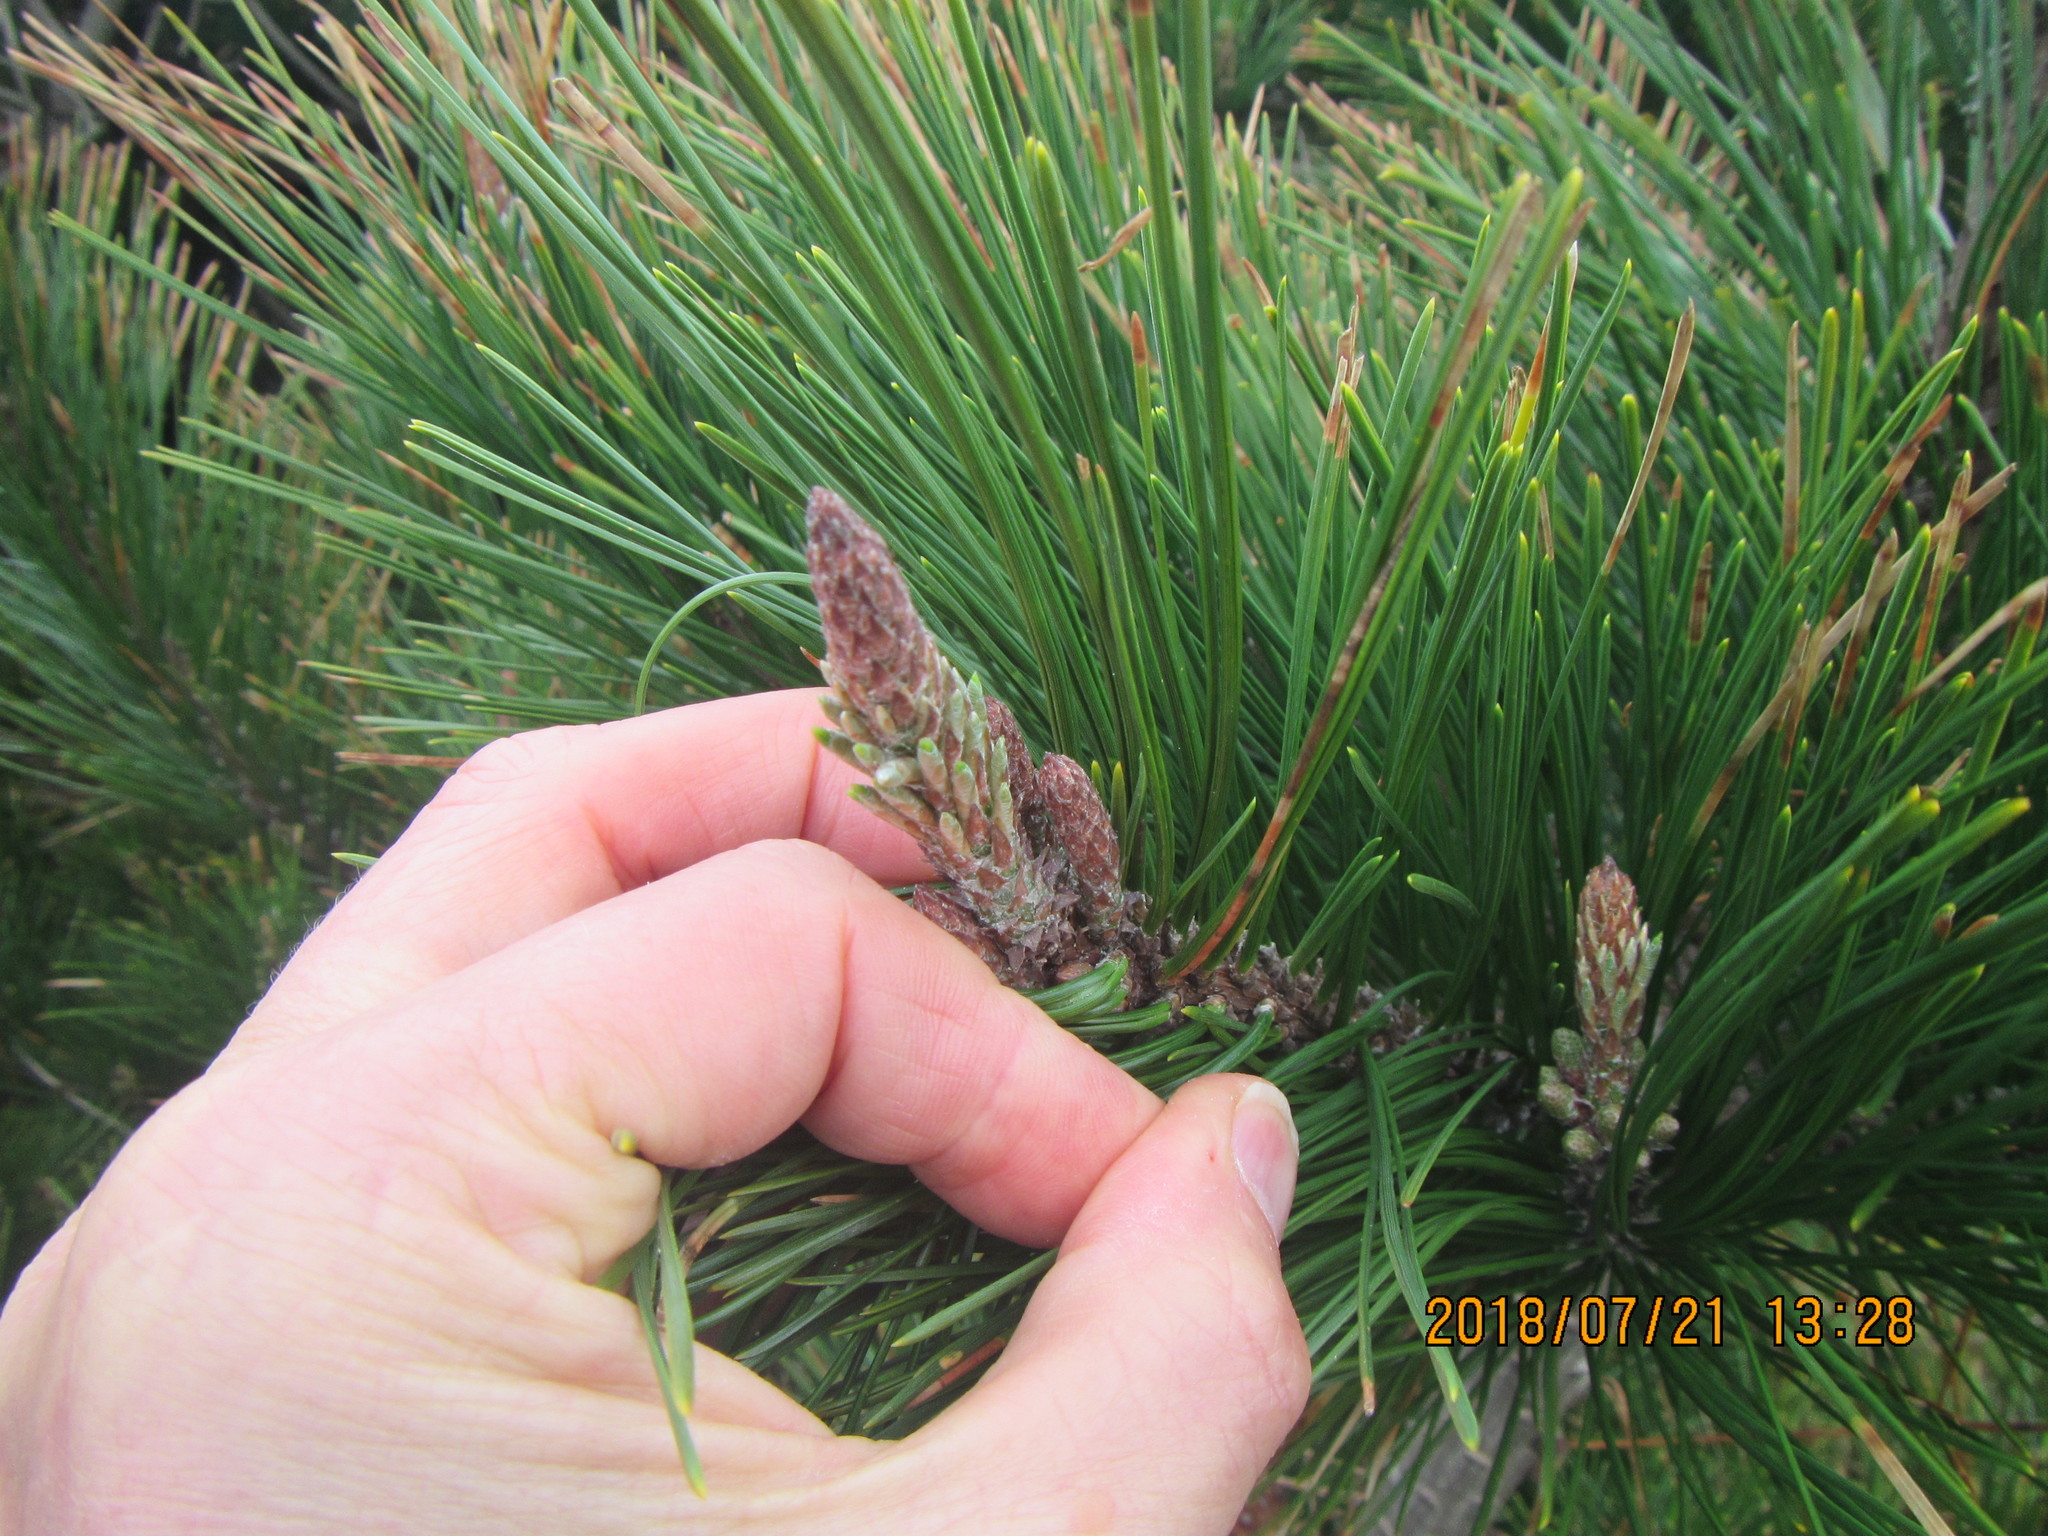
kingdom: Plantae
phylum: Tracheophyta
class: Pinopsida
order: Pinales
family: Pinaceae
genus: Pinus
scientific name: Pinus radiata
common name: Monterey pine
